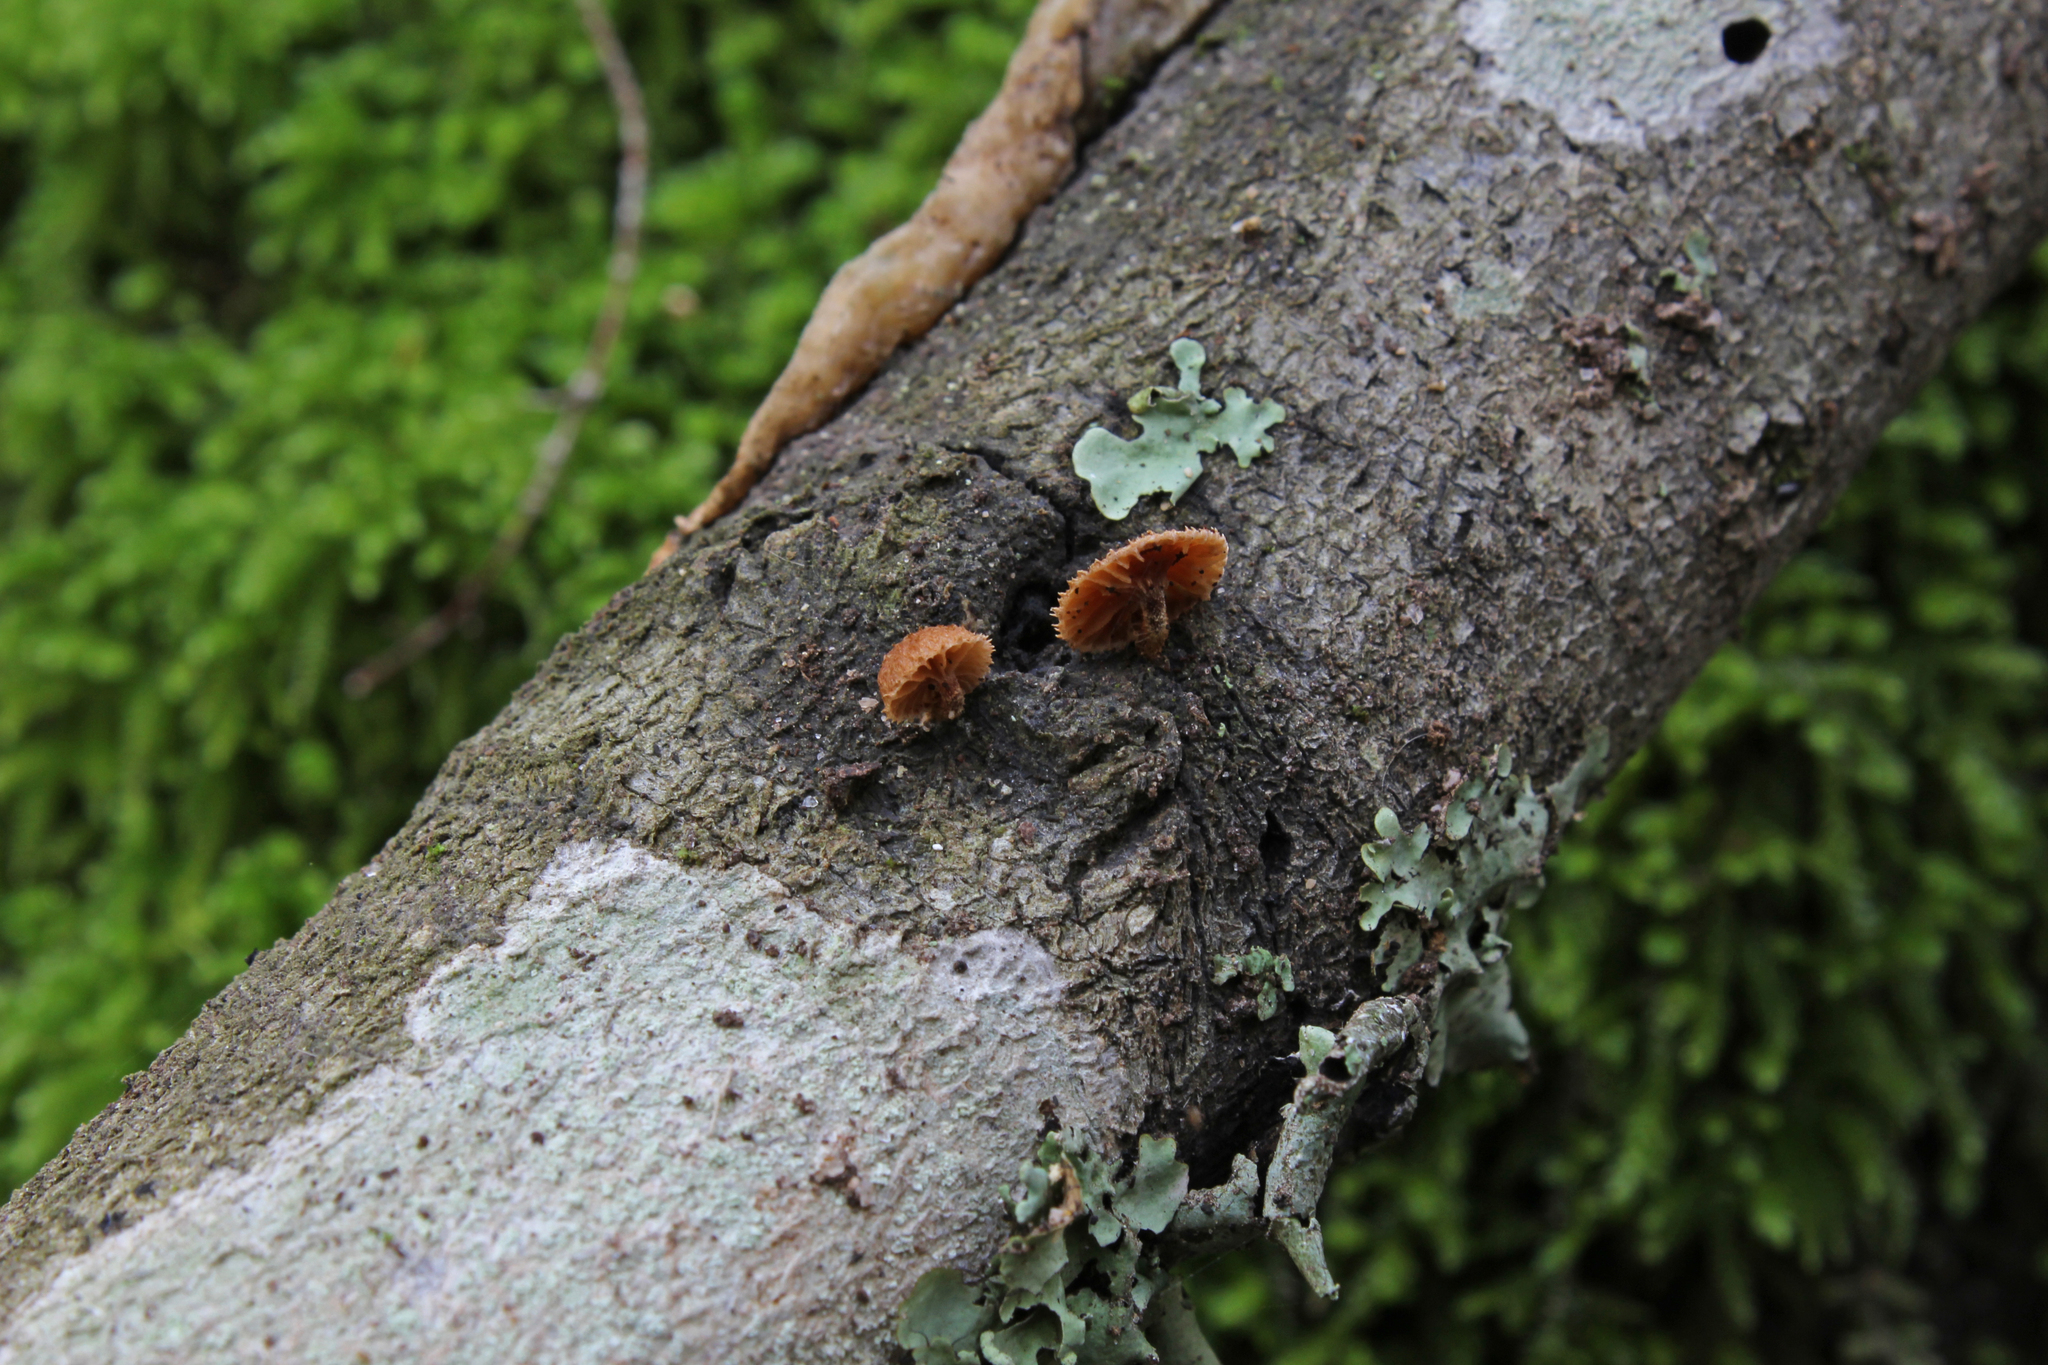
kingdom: Fungi
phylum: Basidiomycota
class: Agaricomycetes
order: Agaricales
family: Tubariaceae
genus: Phaeomarasmius
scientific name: Phaeomarasmius erinaceus
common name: Hedgehog scalycap
